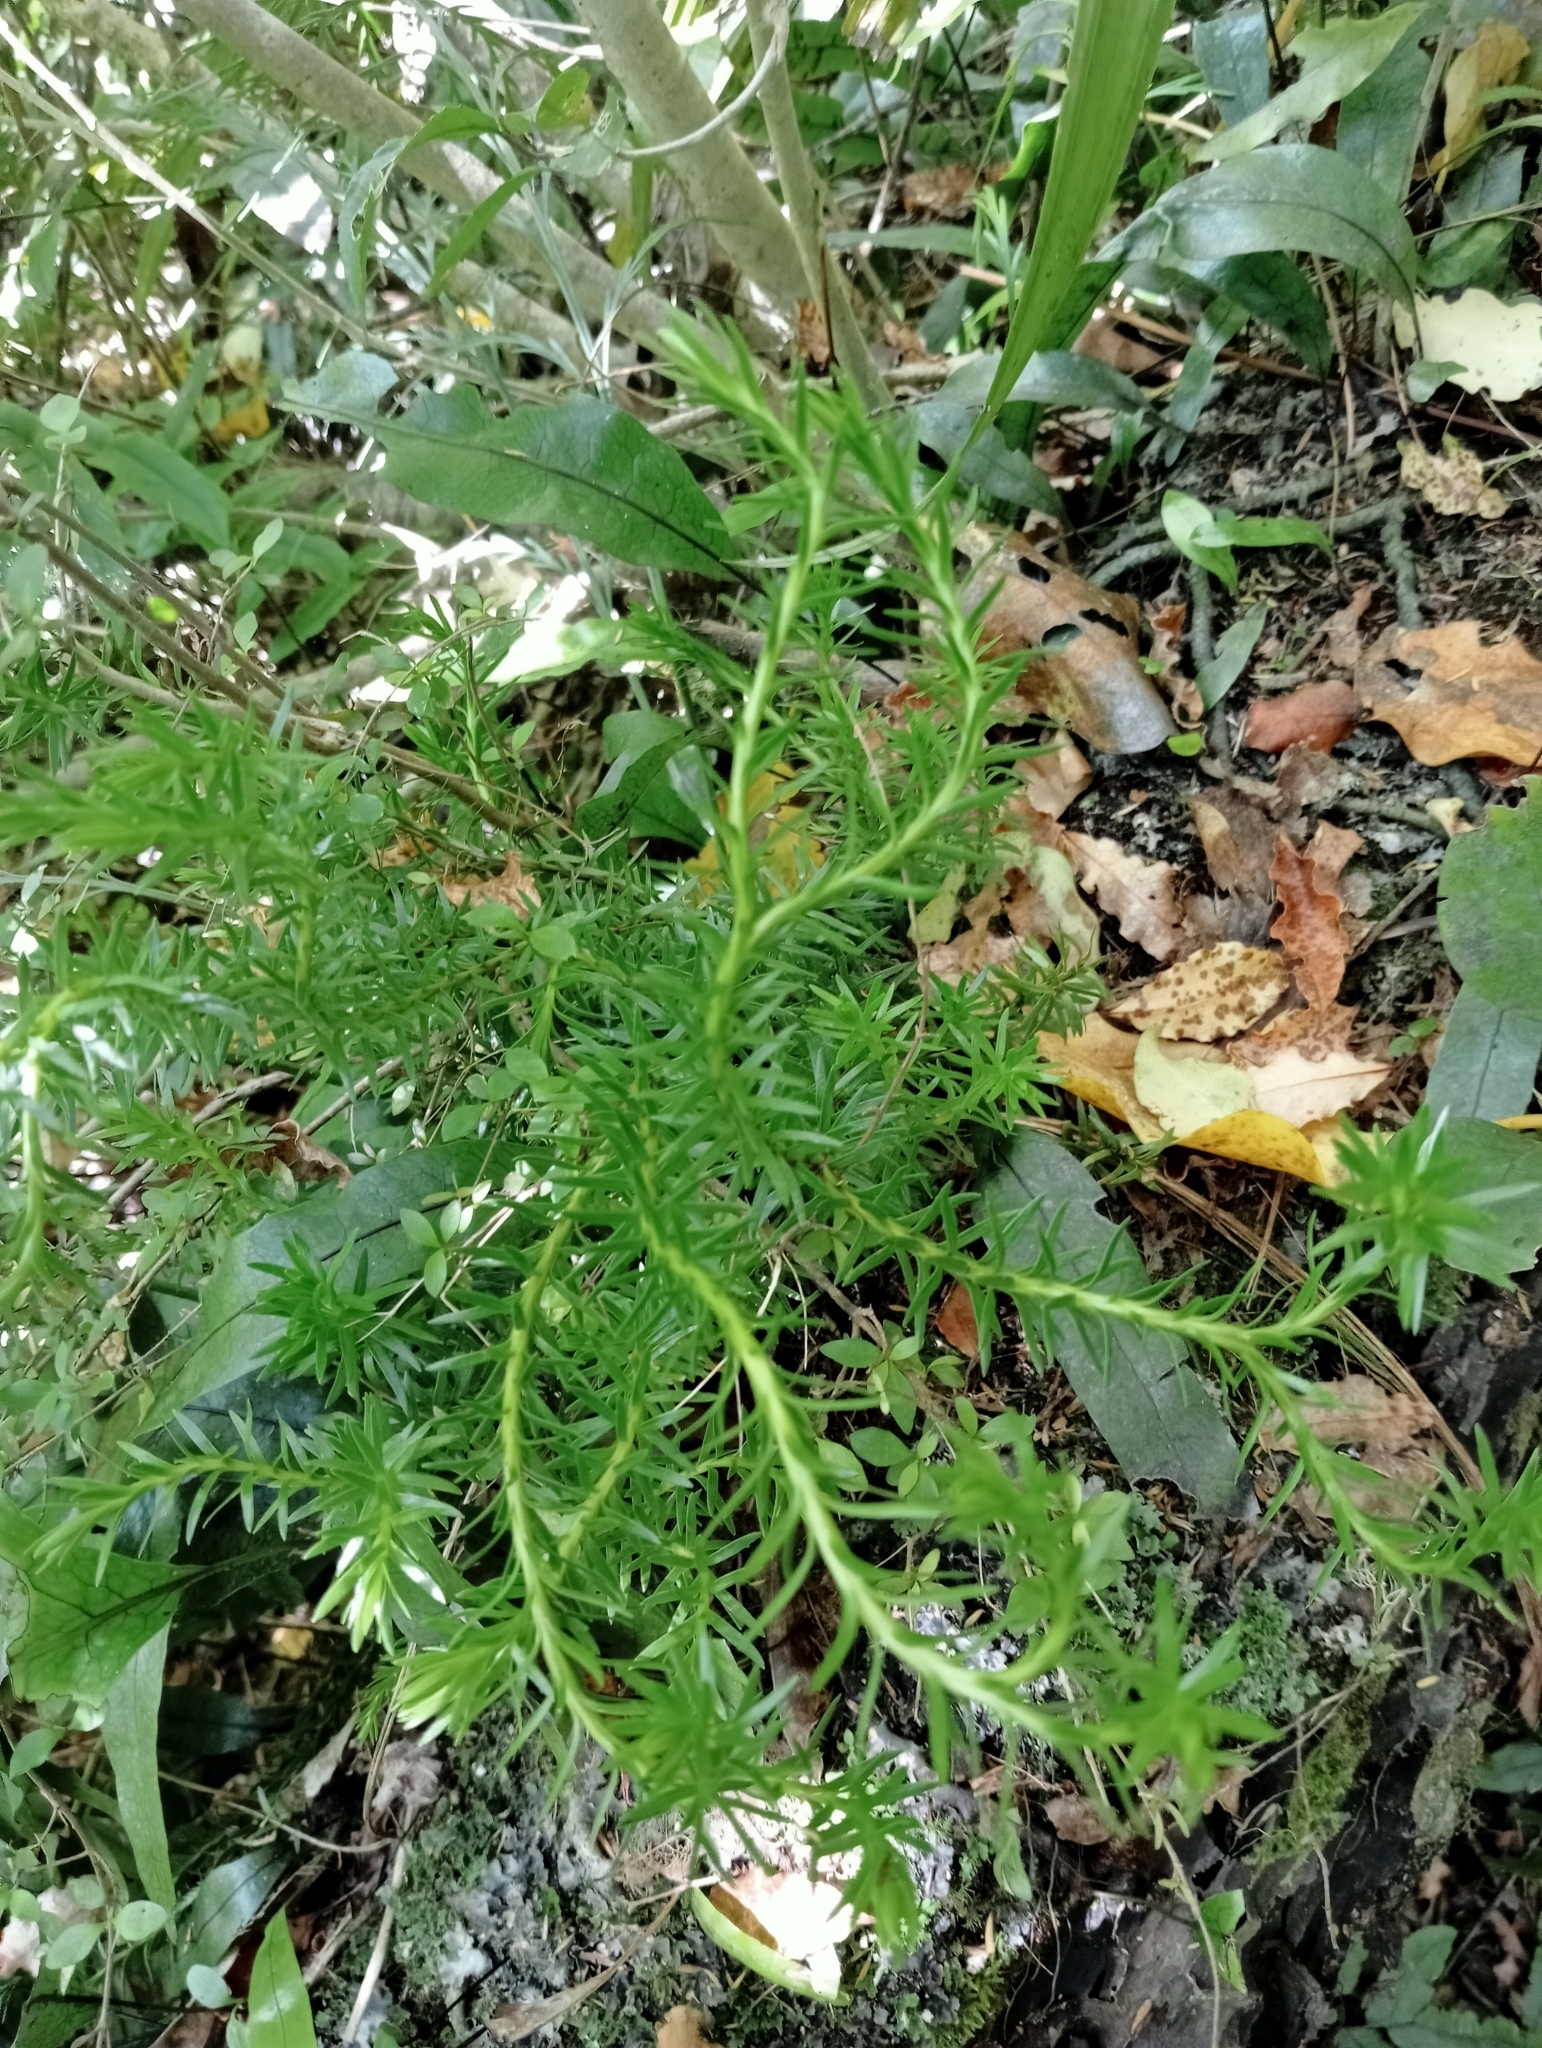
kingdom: Plantae
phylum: Tracheophyta
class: Lycopodiopsida
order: Lycopodiales
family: Lycopodiaceae
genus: Phlegmariurus
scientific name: Phlegmariurus varius
